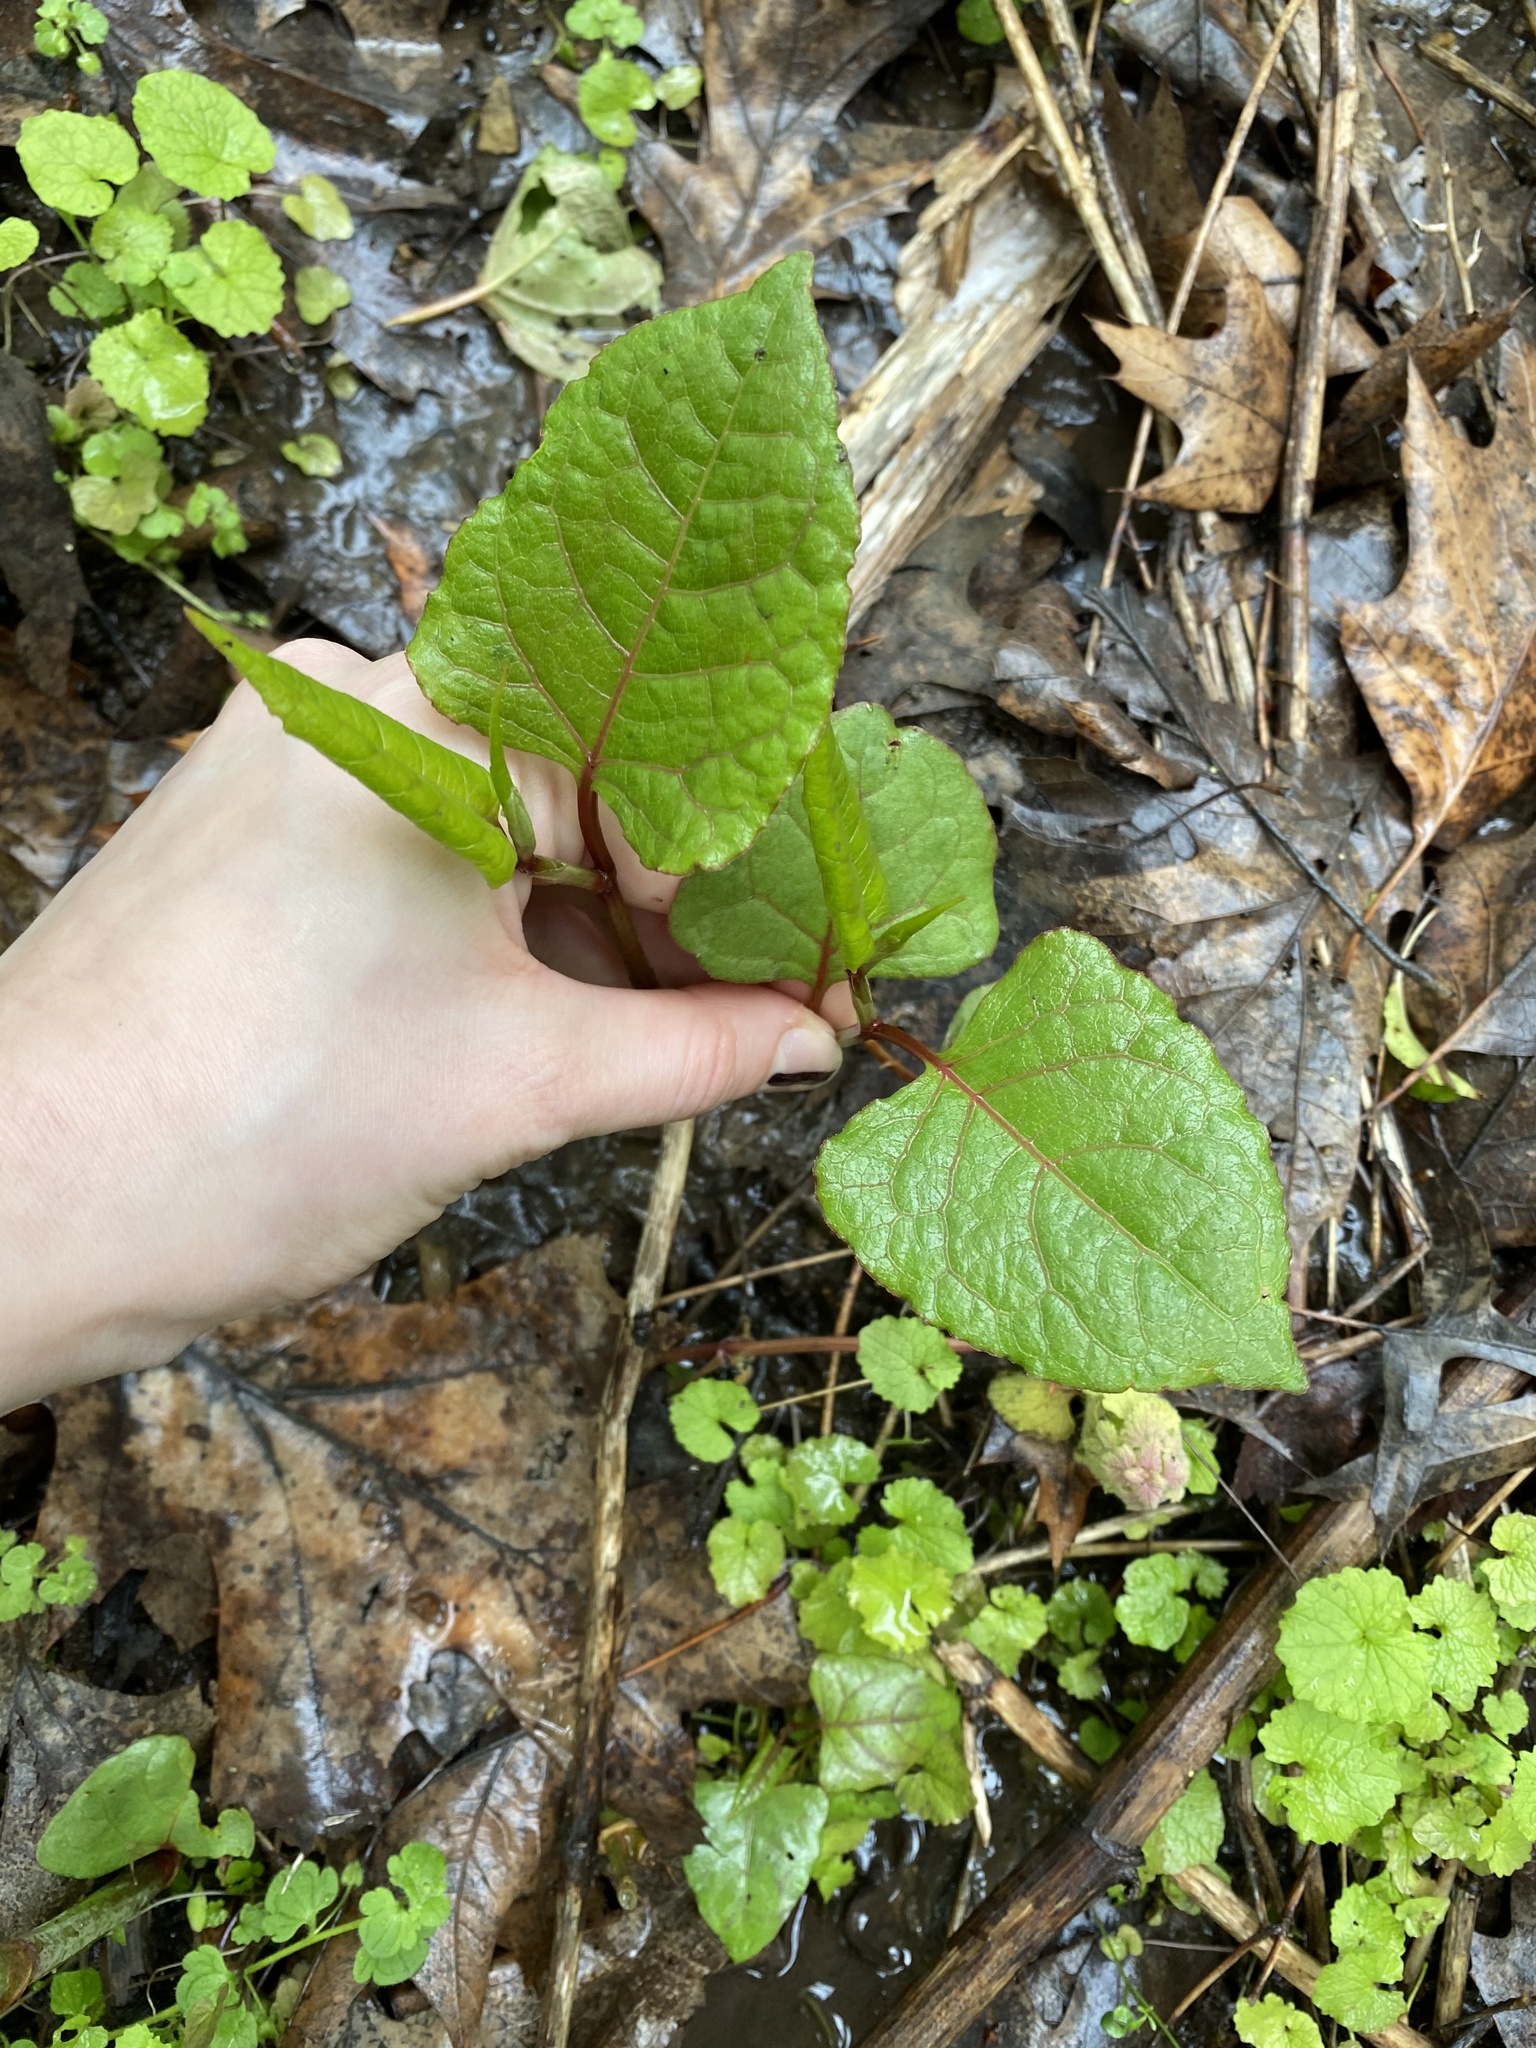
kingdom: Plantae
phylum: Tracheophyta
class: Magnoliopsida
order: Caryophyllales
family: Polygonaceae
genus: Reynoutria
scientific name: Reynoutria japonica
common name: Japanese knotweed
